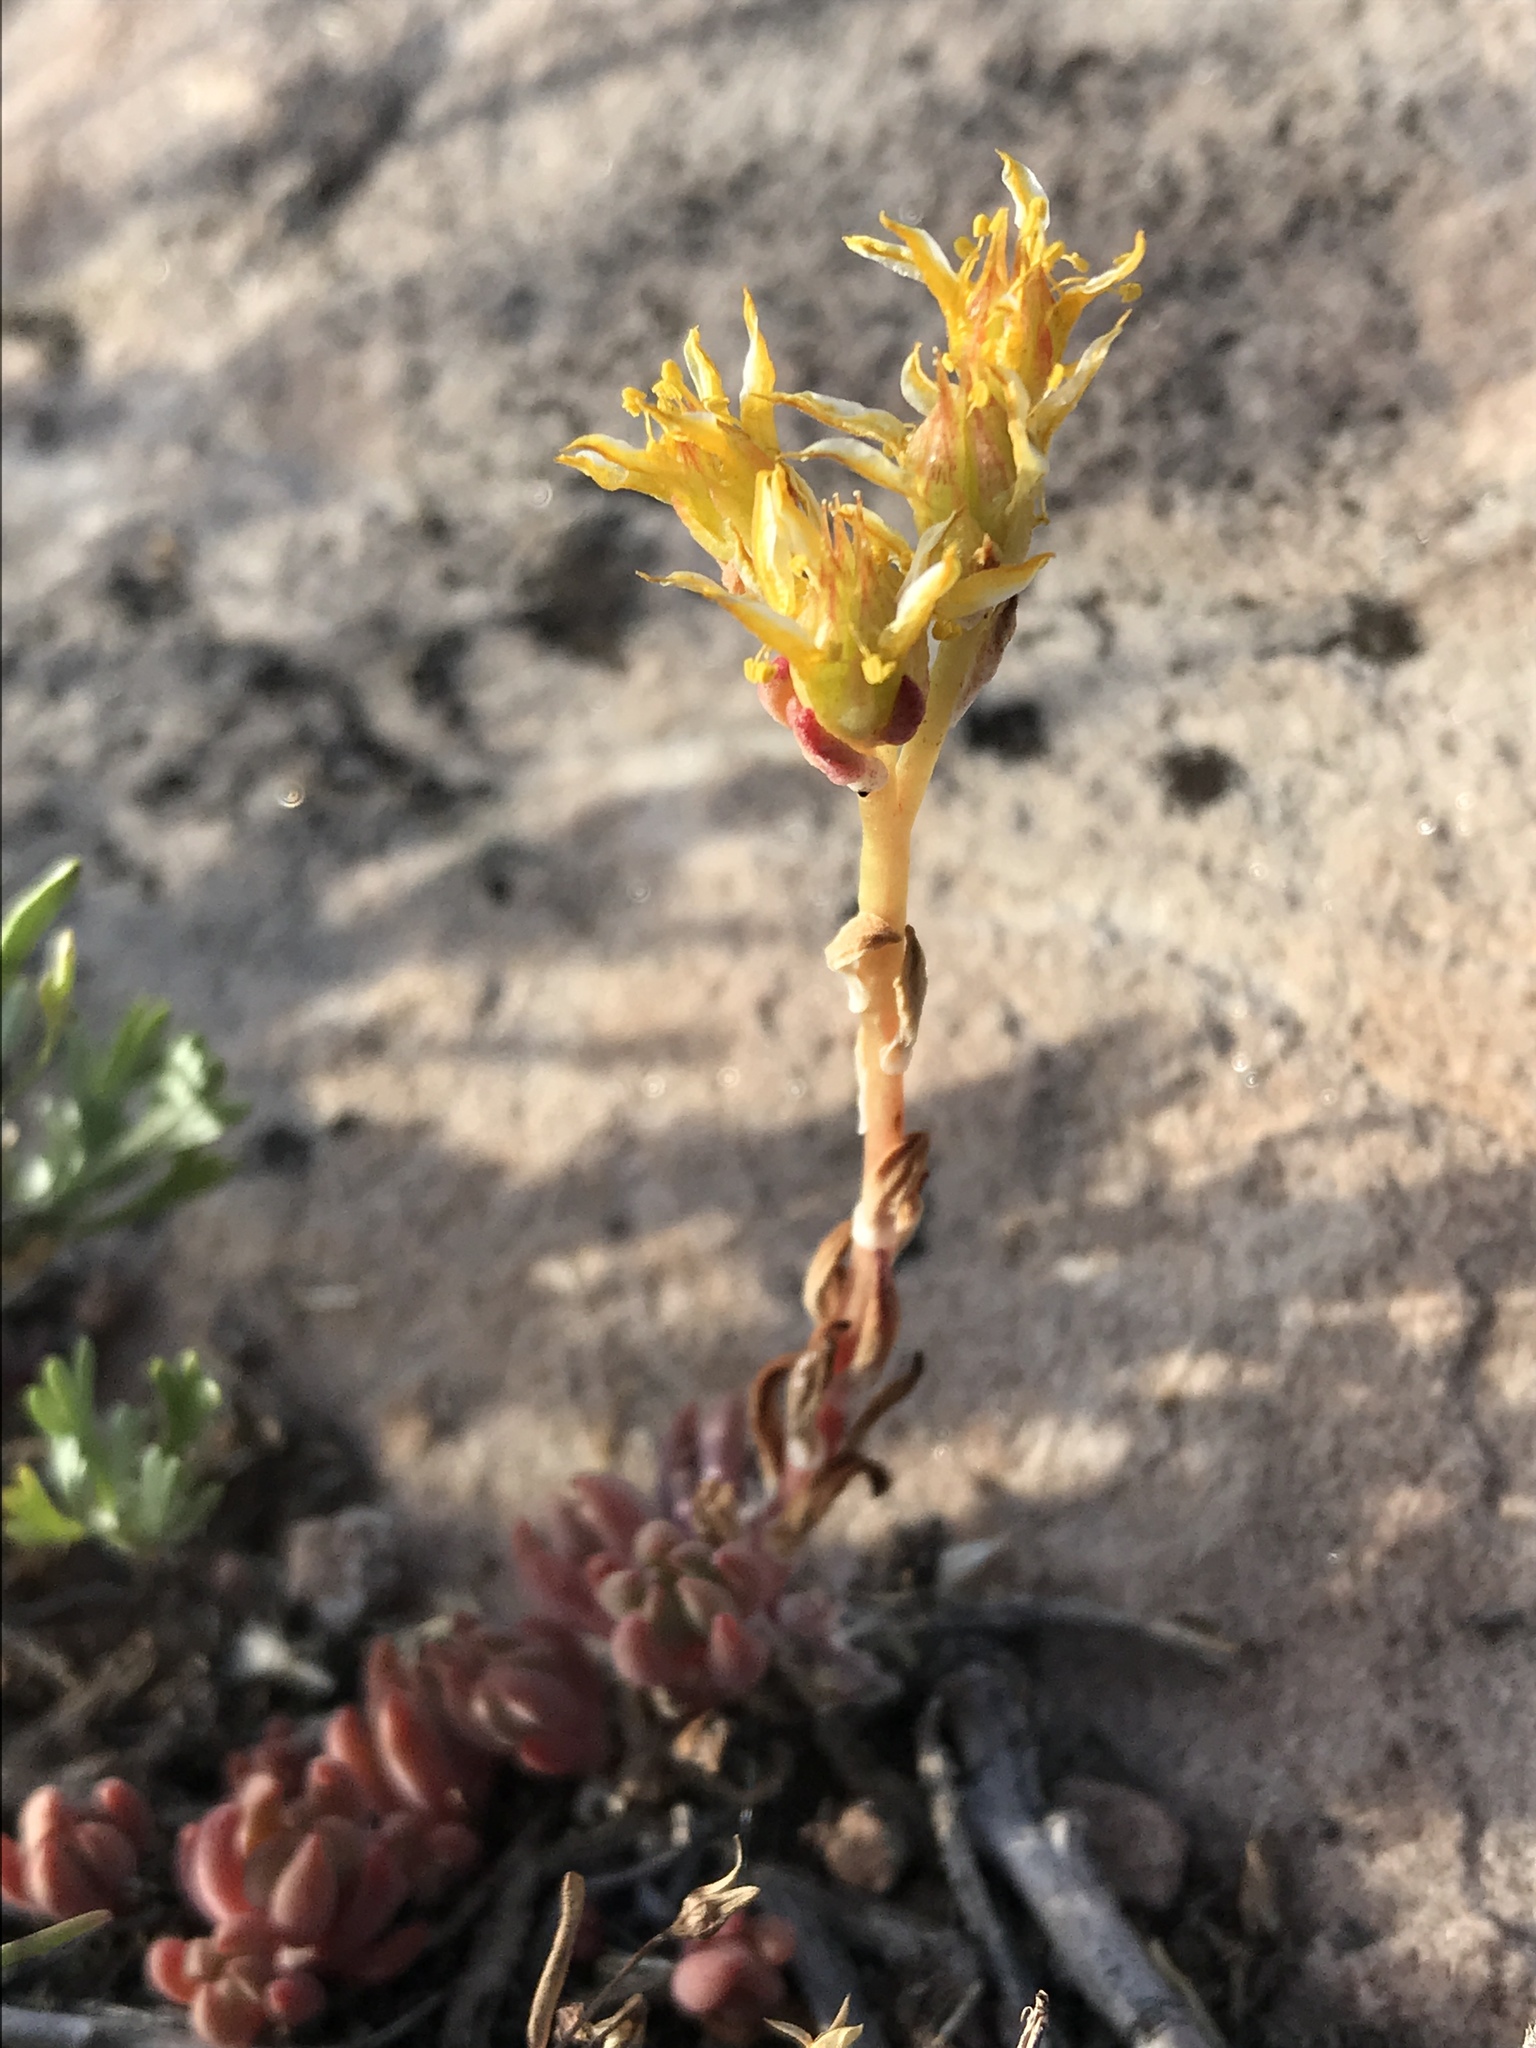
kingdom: Plantae
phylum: Tracheophyta
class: Magnoliopsida
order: Saxifragales
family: Crassulaceae
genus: Sedum
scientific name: Sedum lanceolatum
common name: Common stonecrop
